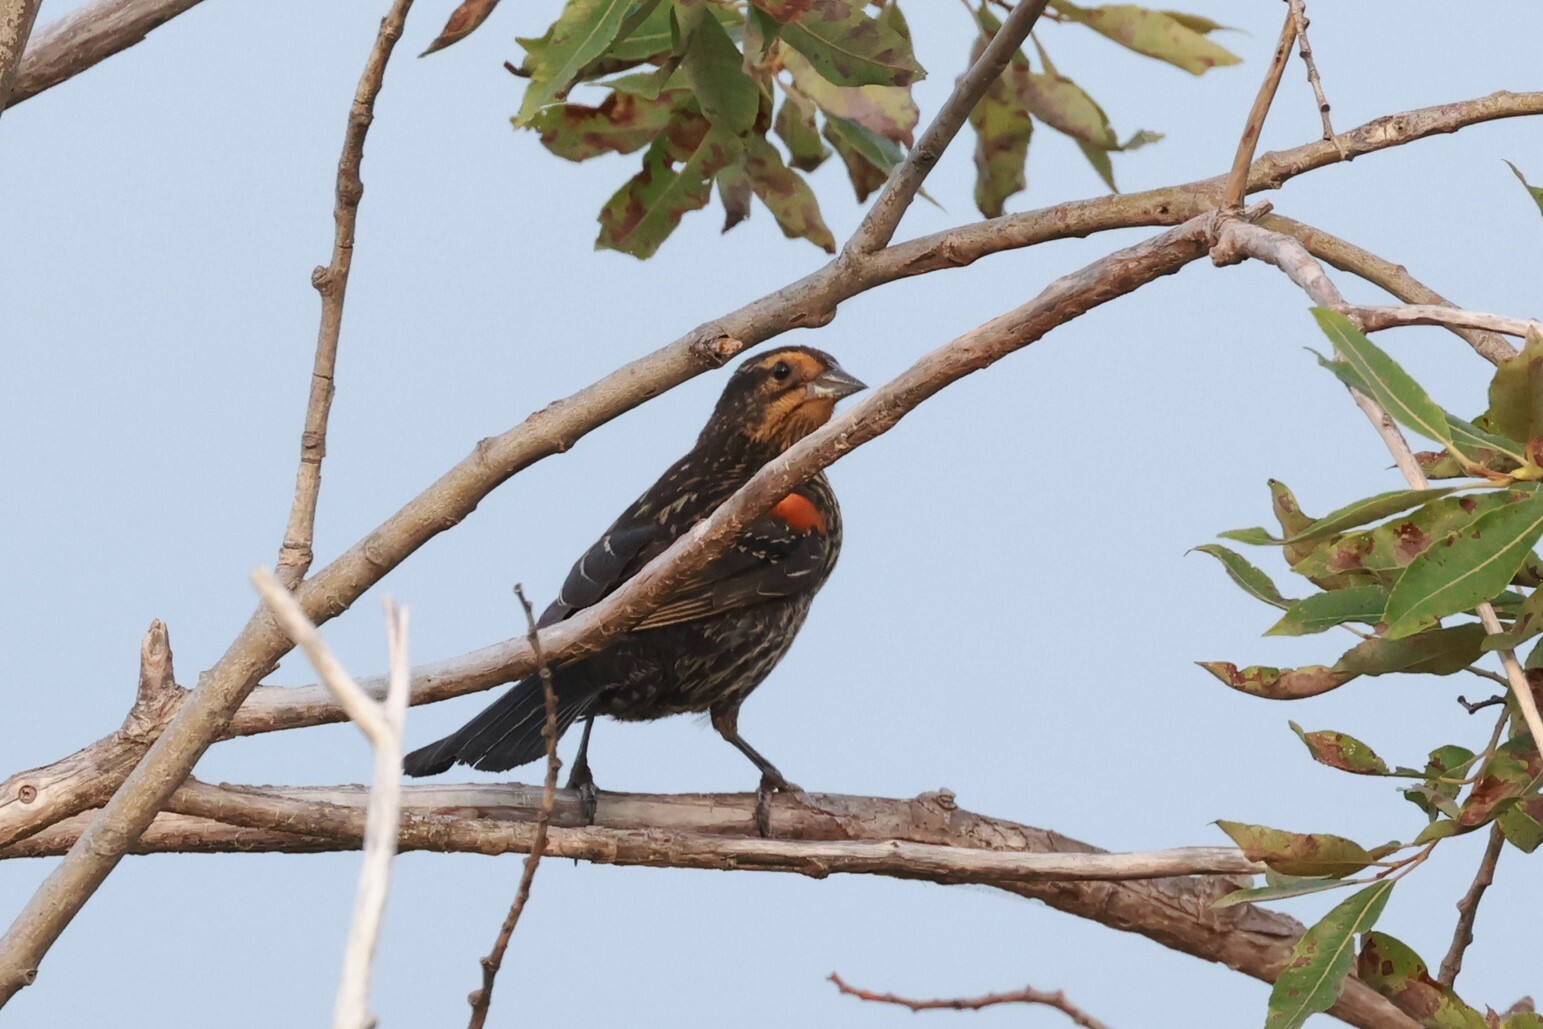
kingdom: Animalia
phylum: Chordata
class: Aves
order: Passeriformes
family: Icteridae
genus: Agelaius
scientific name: Agelaius phoeniceus
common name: Red-winged blackbird
